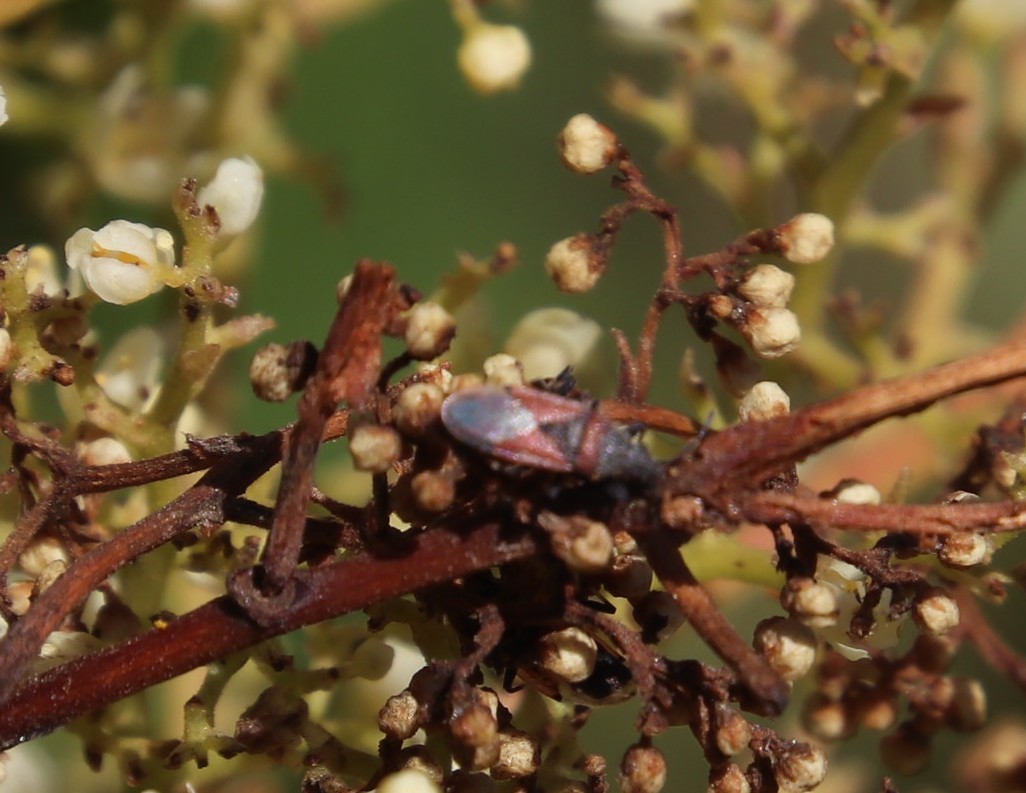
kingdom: Animalia
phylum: Arthropoda
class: Insecta
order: Hemiptera
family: Oxycarenidae
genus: Oxycarenus
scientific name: Oxycarenus annulipes
